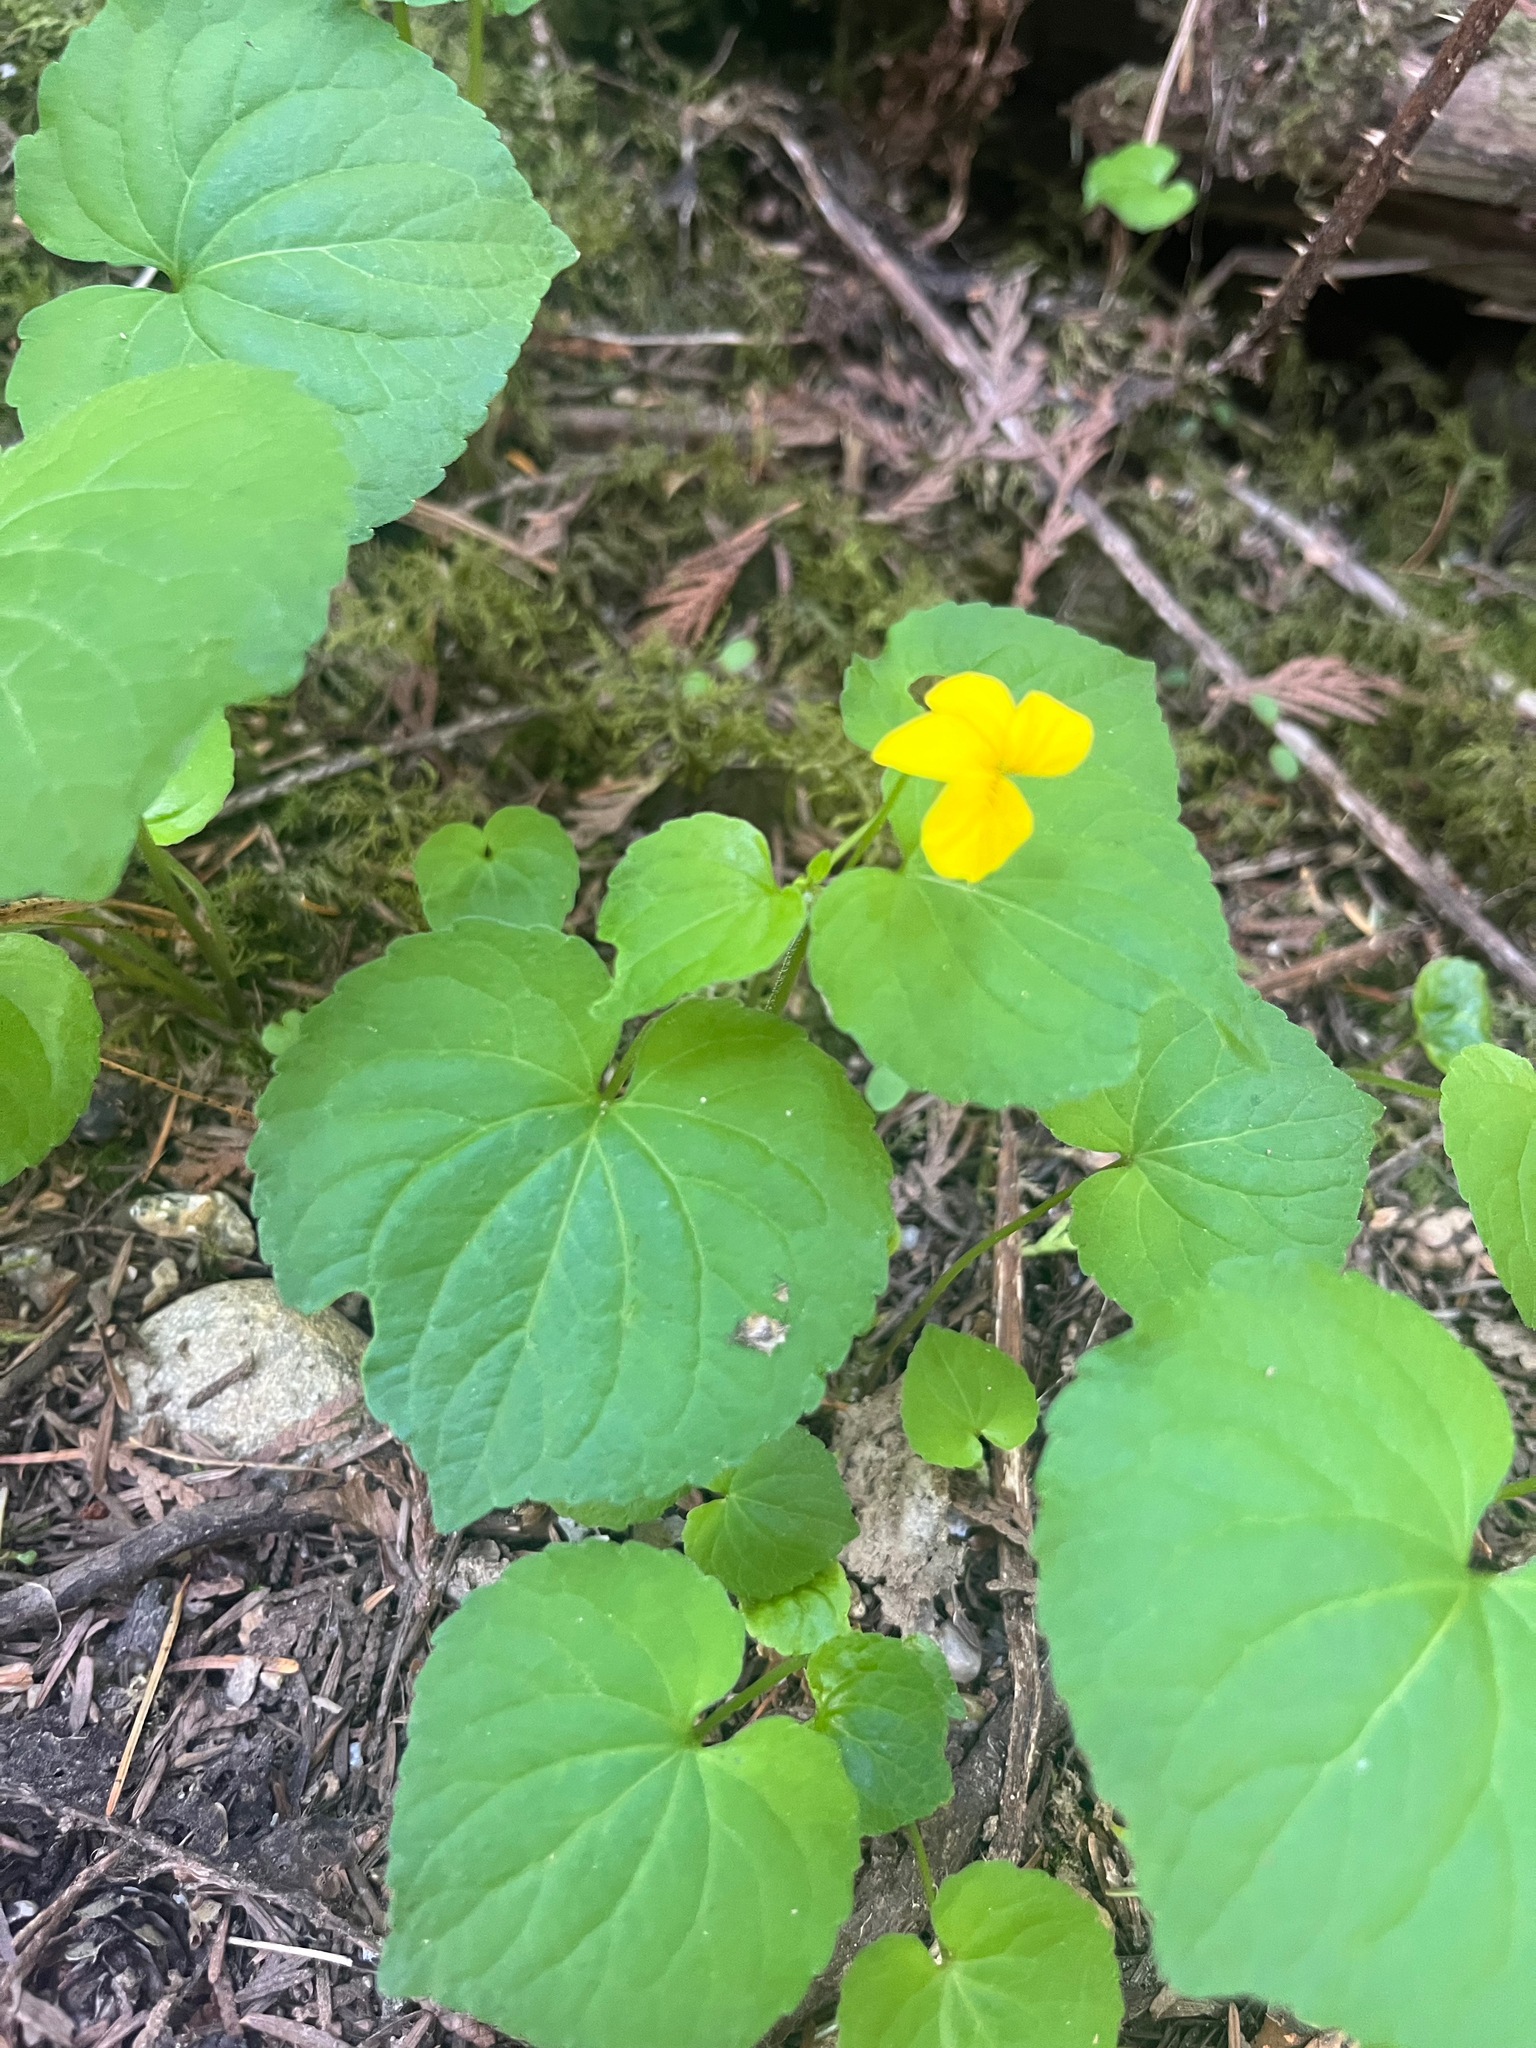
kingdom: Plantae
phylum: Tracheophyta
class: Magnoliopsida
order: Malpighiales
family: Violaceae
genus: Viola
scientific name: Viola glabella
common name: Stream violet
